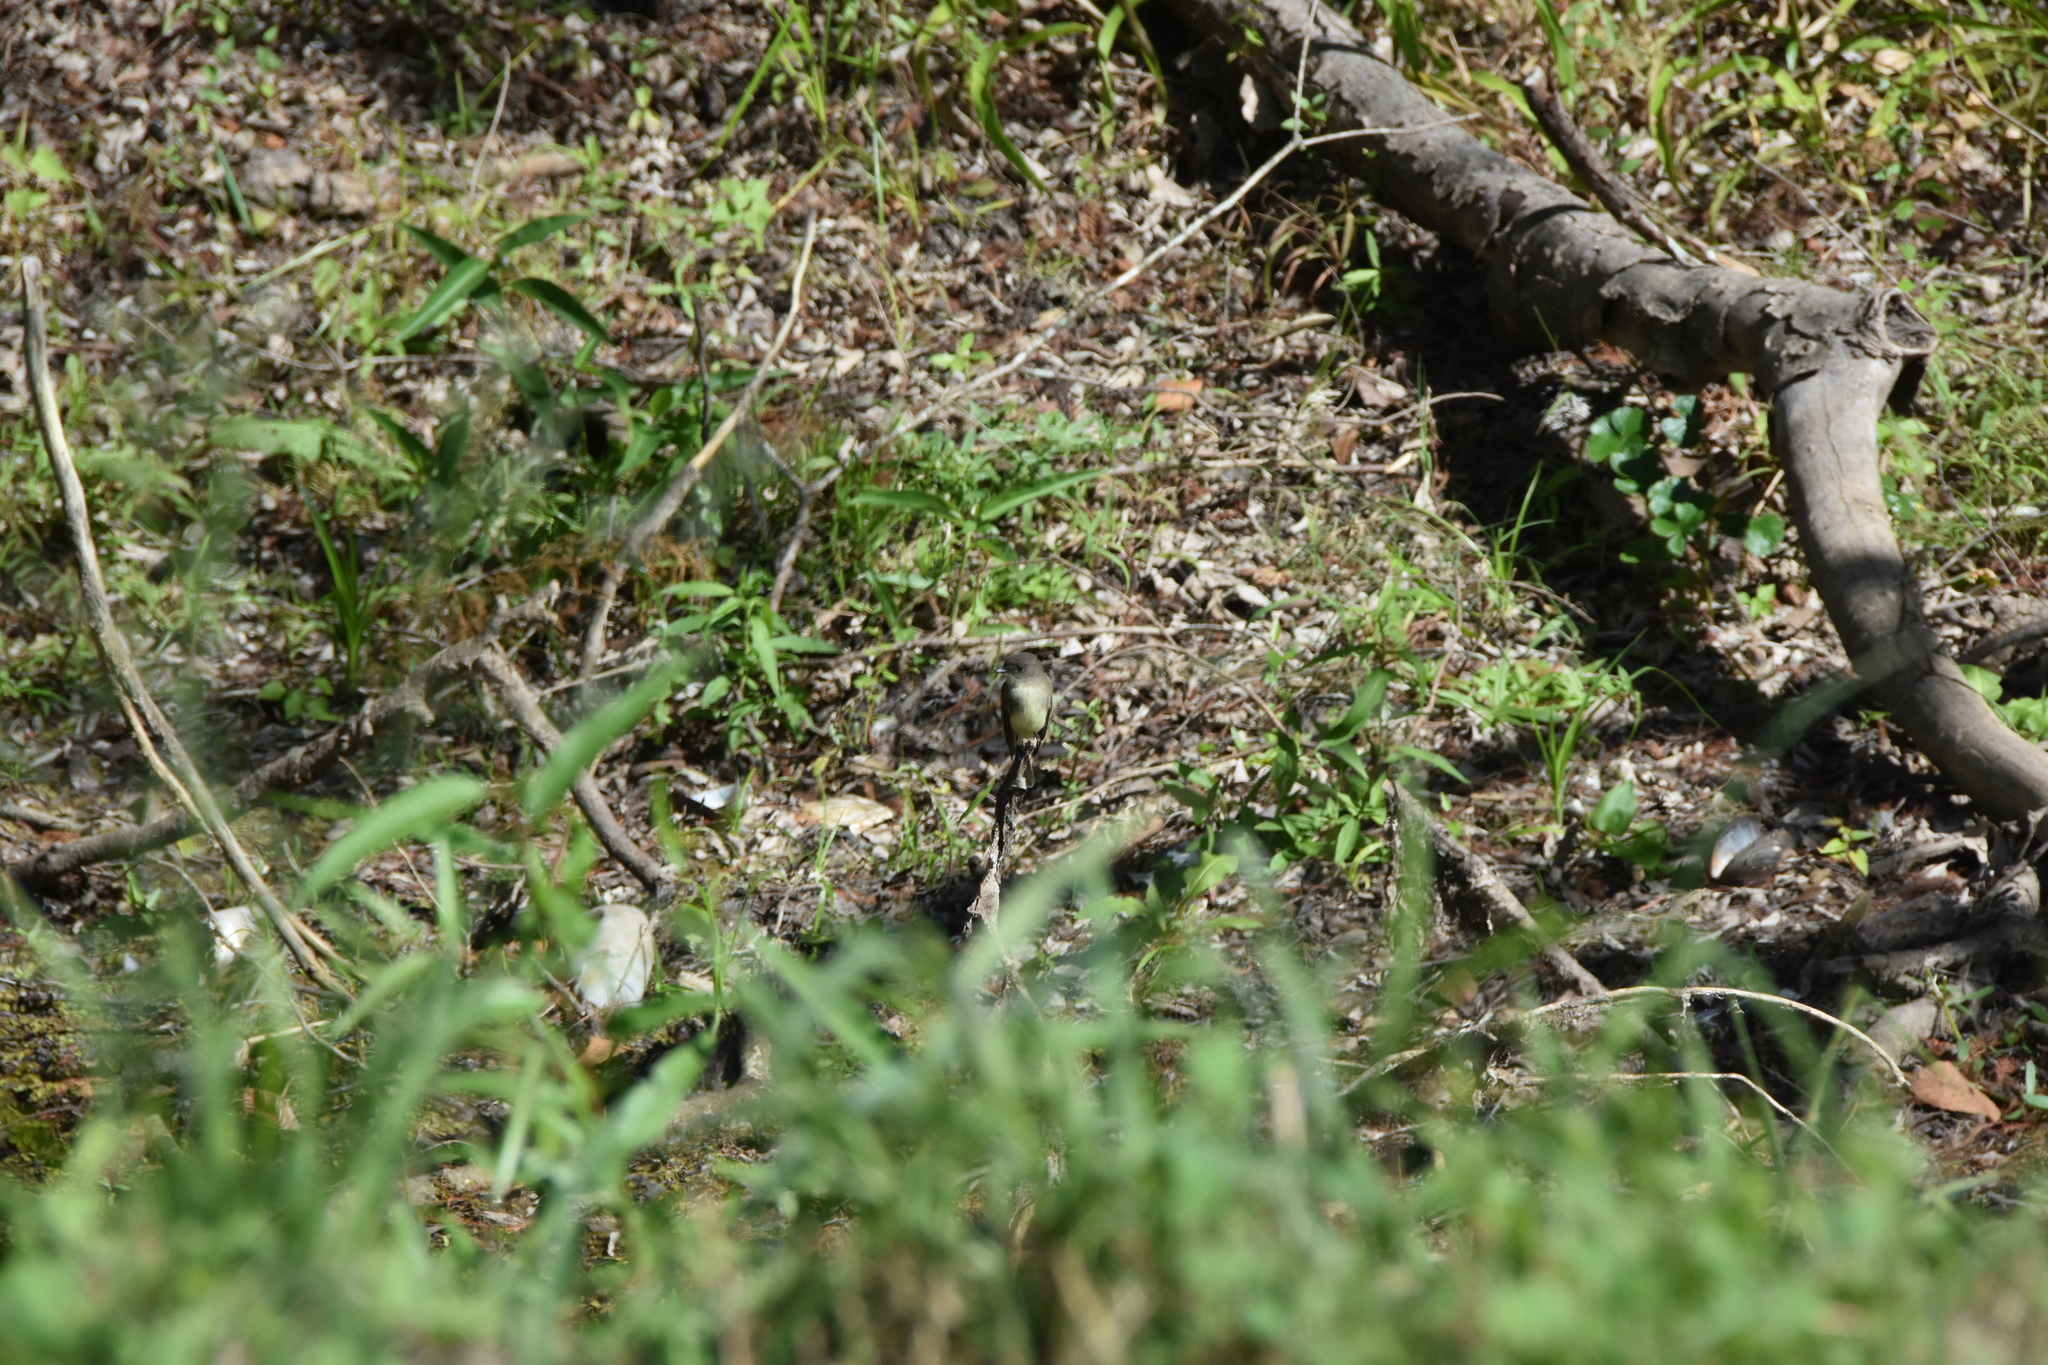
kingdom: Animalia
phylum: Chordata
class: Aves
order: Passeriformes
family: Tyrannidae
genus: Sayornis
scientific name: Sayornis phoebe
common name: Eastern phoebe
